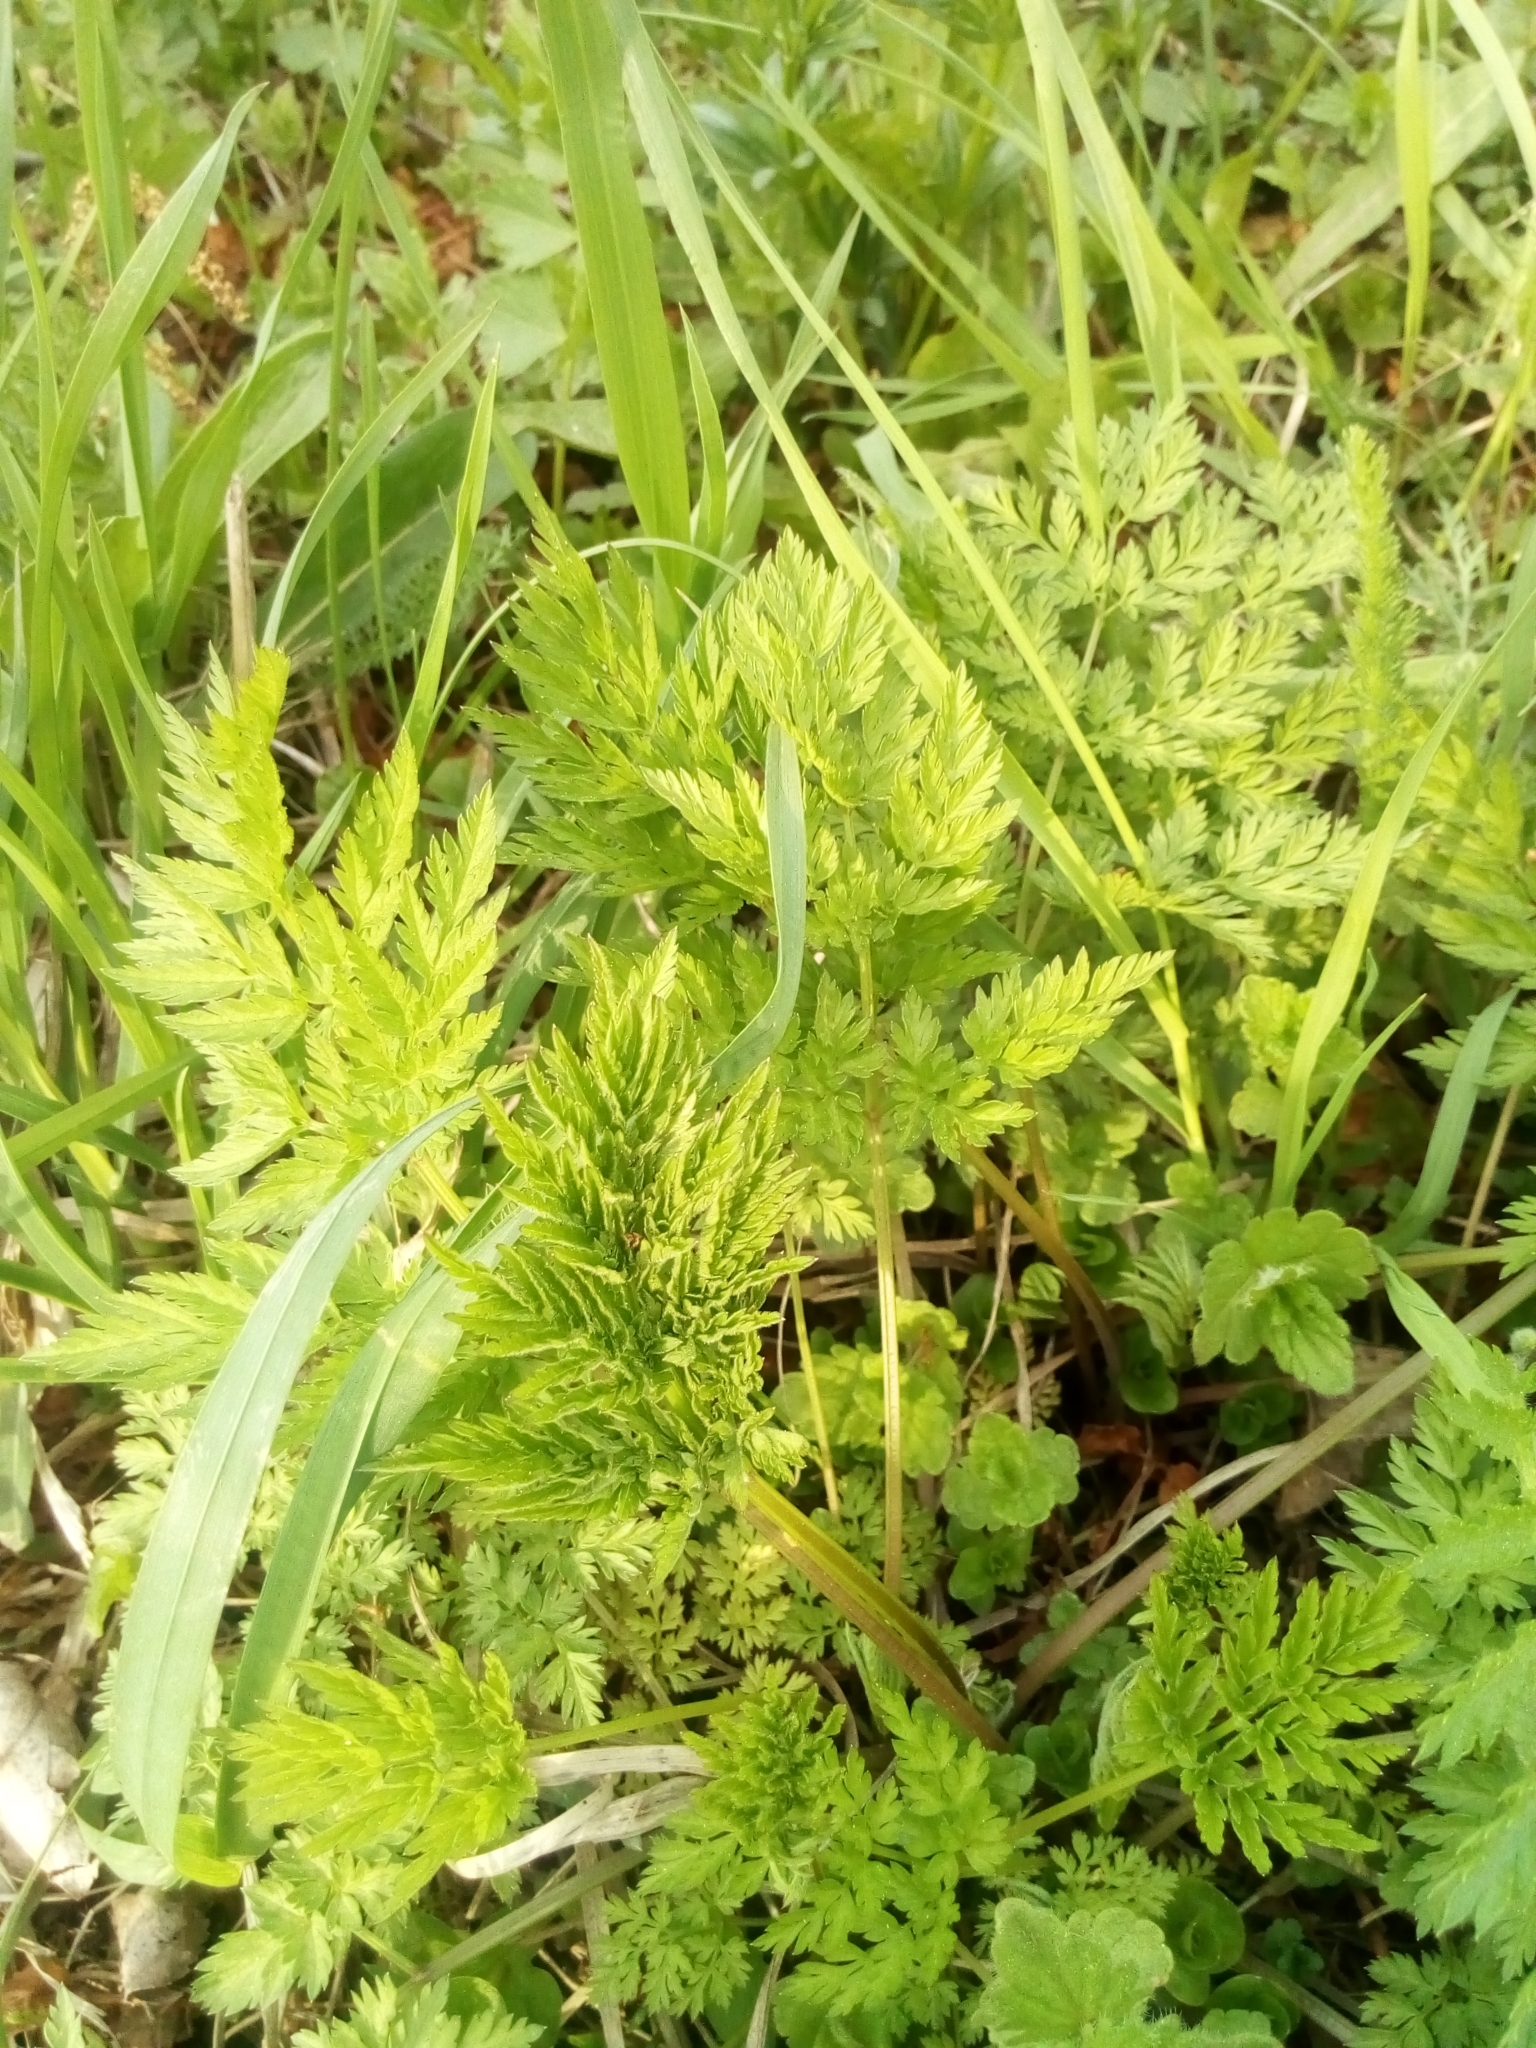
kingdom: Plantae
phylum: Tracheophyta
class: Magnoliopsida
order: Apiales
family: Apiaceae
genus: Anthriscus
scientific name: Anthriscus sylvestris
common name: Cow parsley
